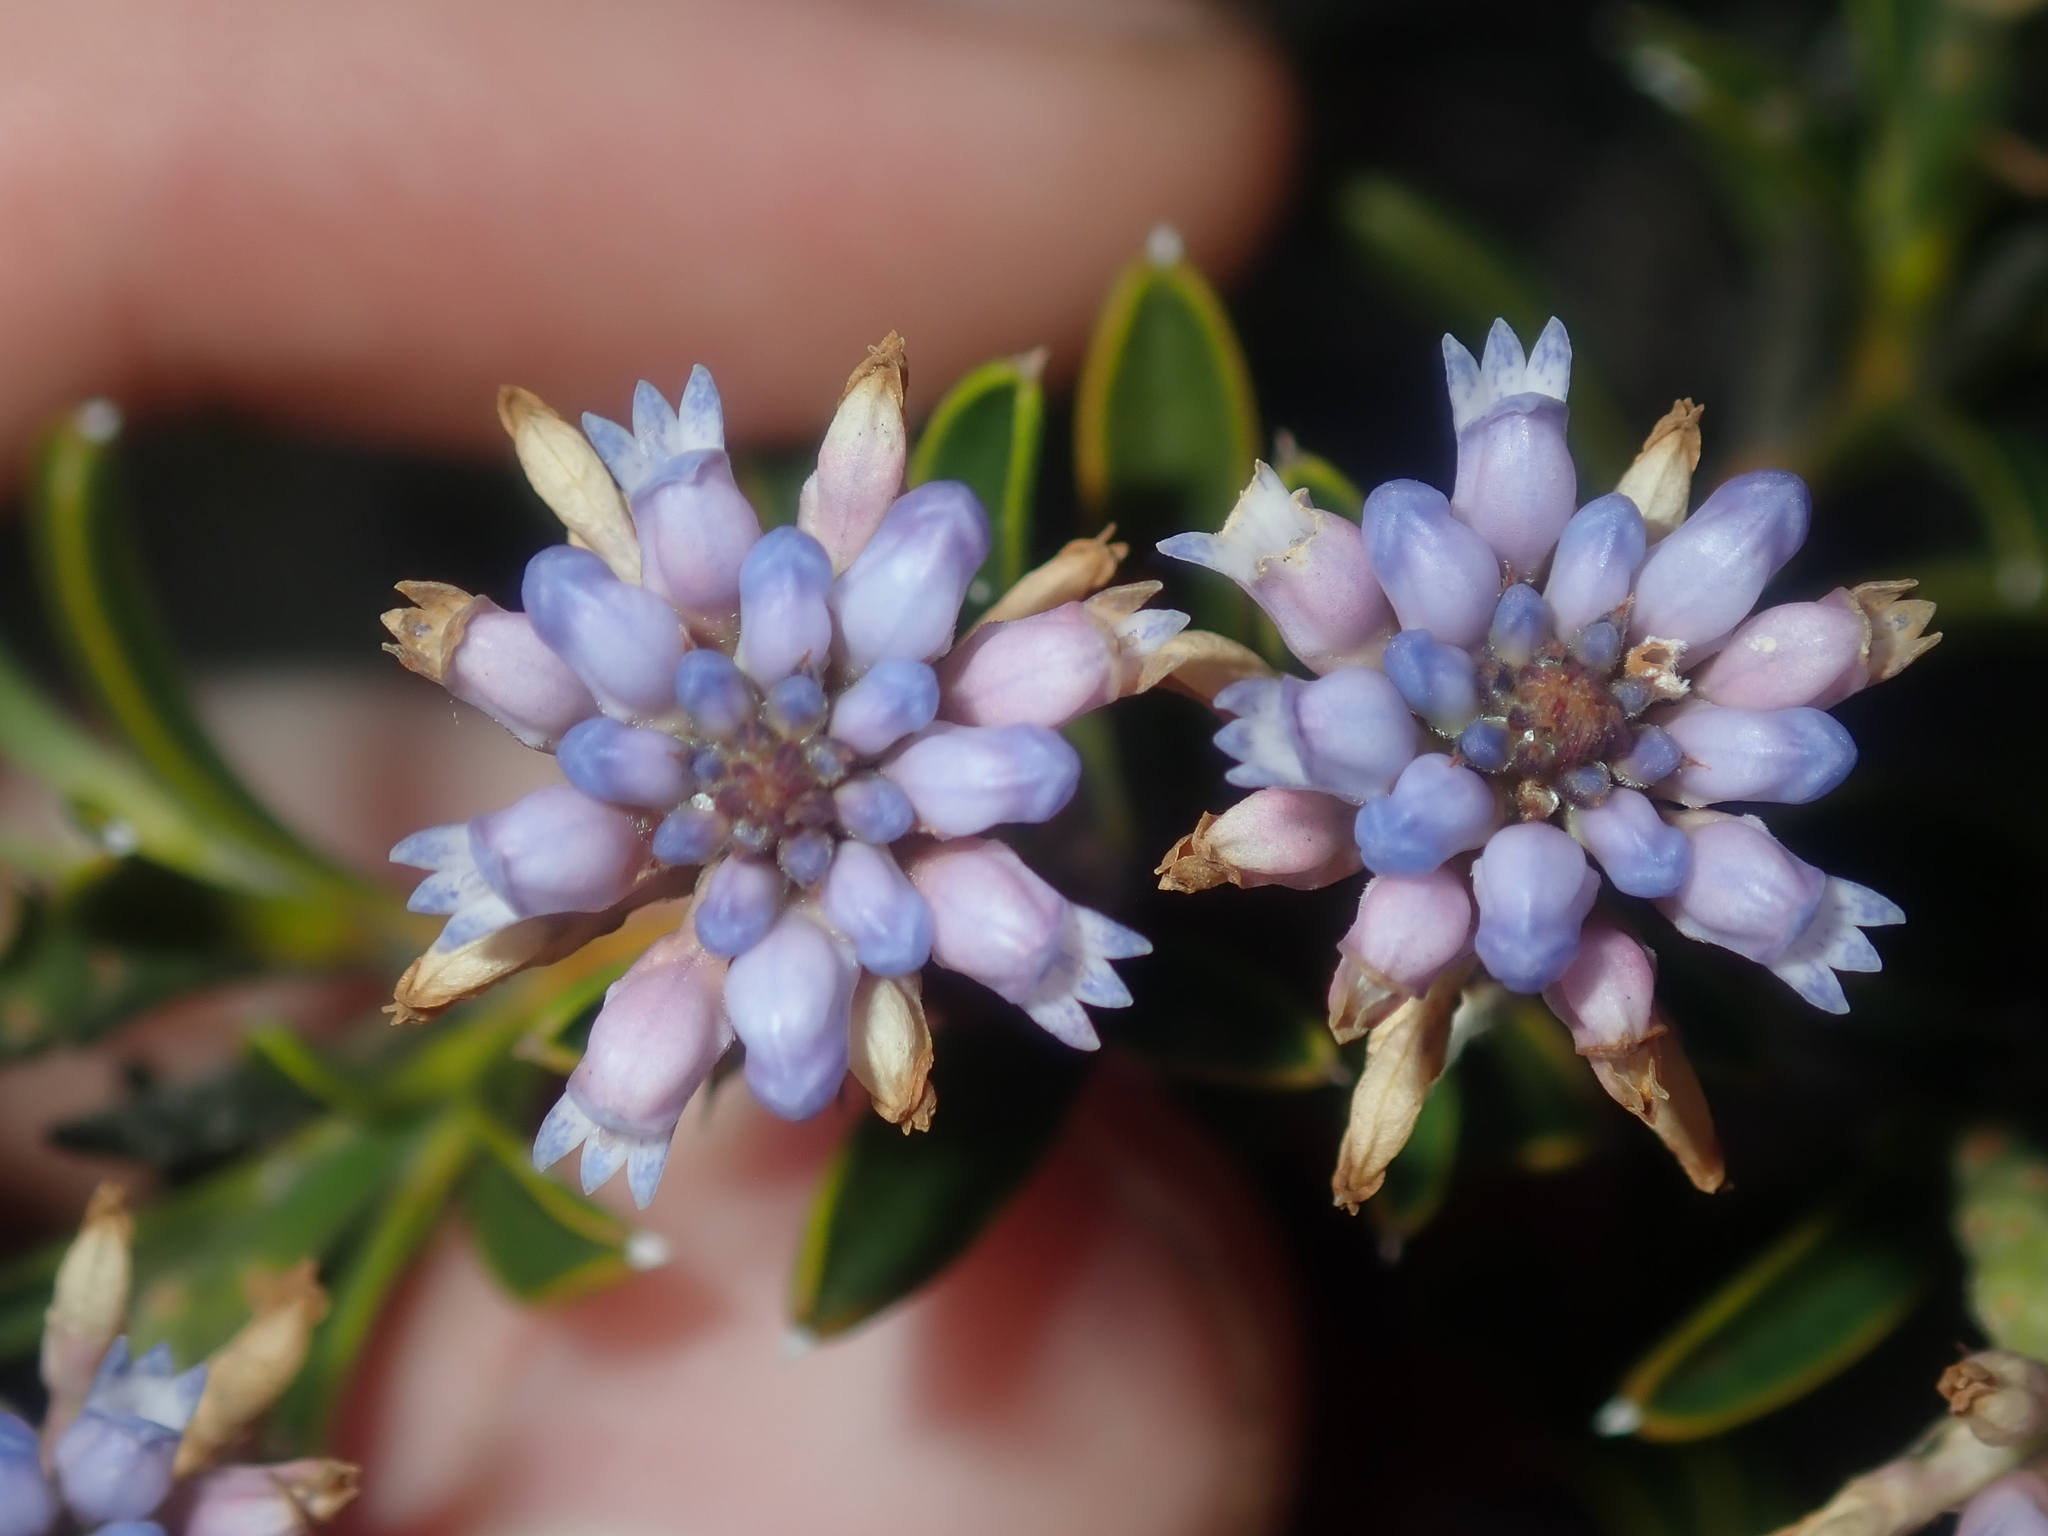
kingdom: Plantae
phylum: Tracheophyta
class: Magnoliopsida
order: Proteales
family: Proteaceae
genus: Conospermum
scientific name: Conospermum nervosum
